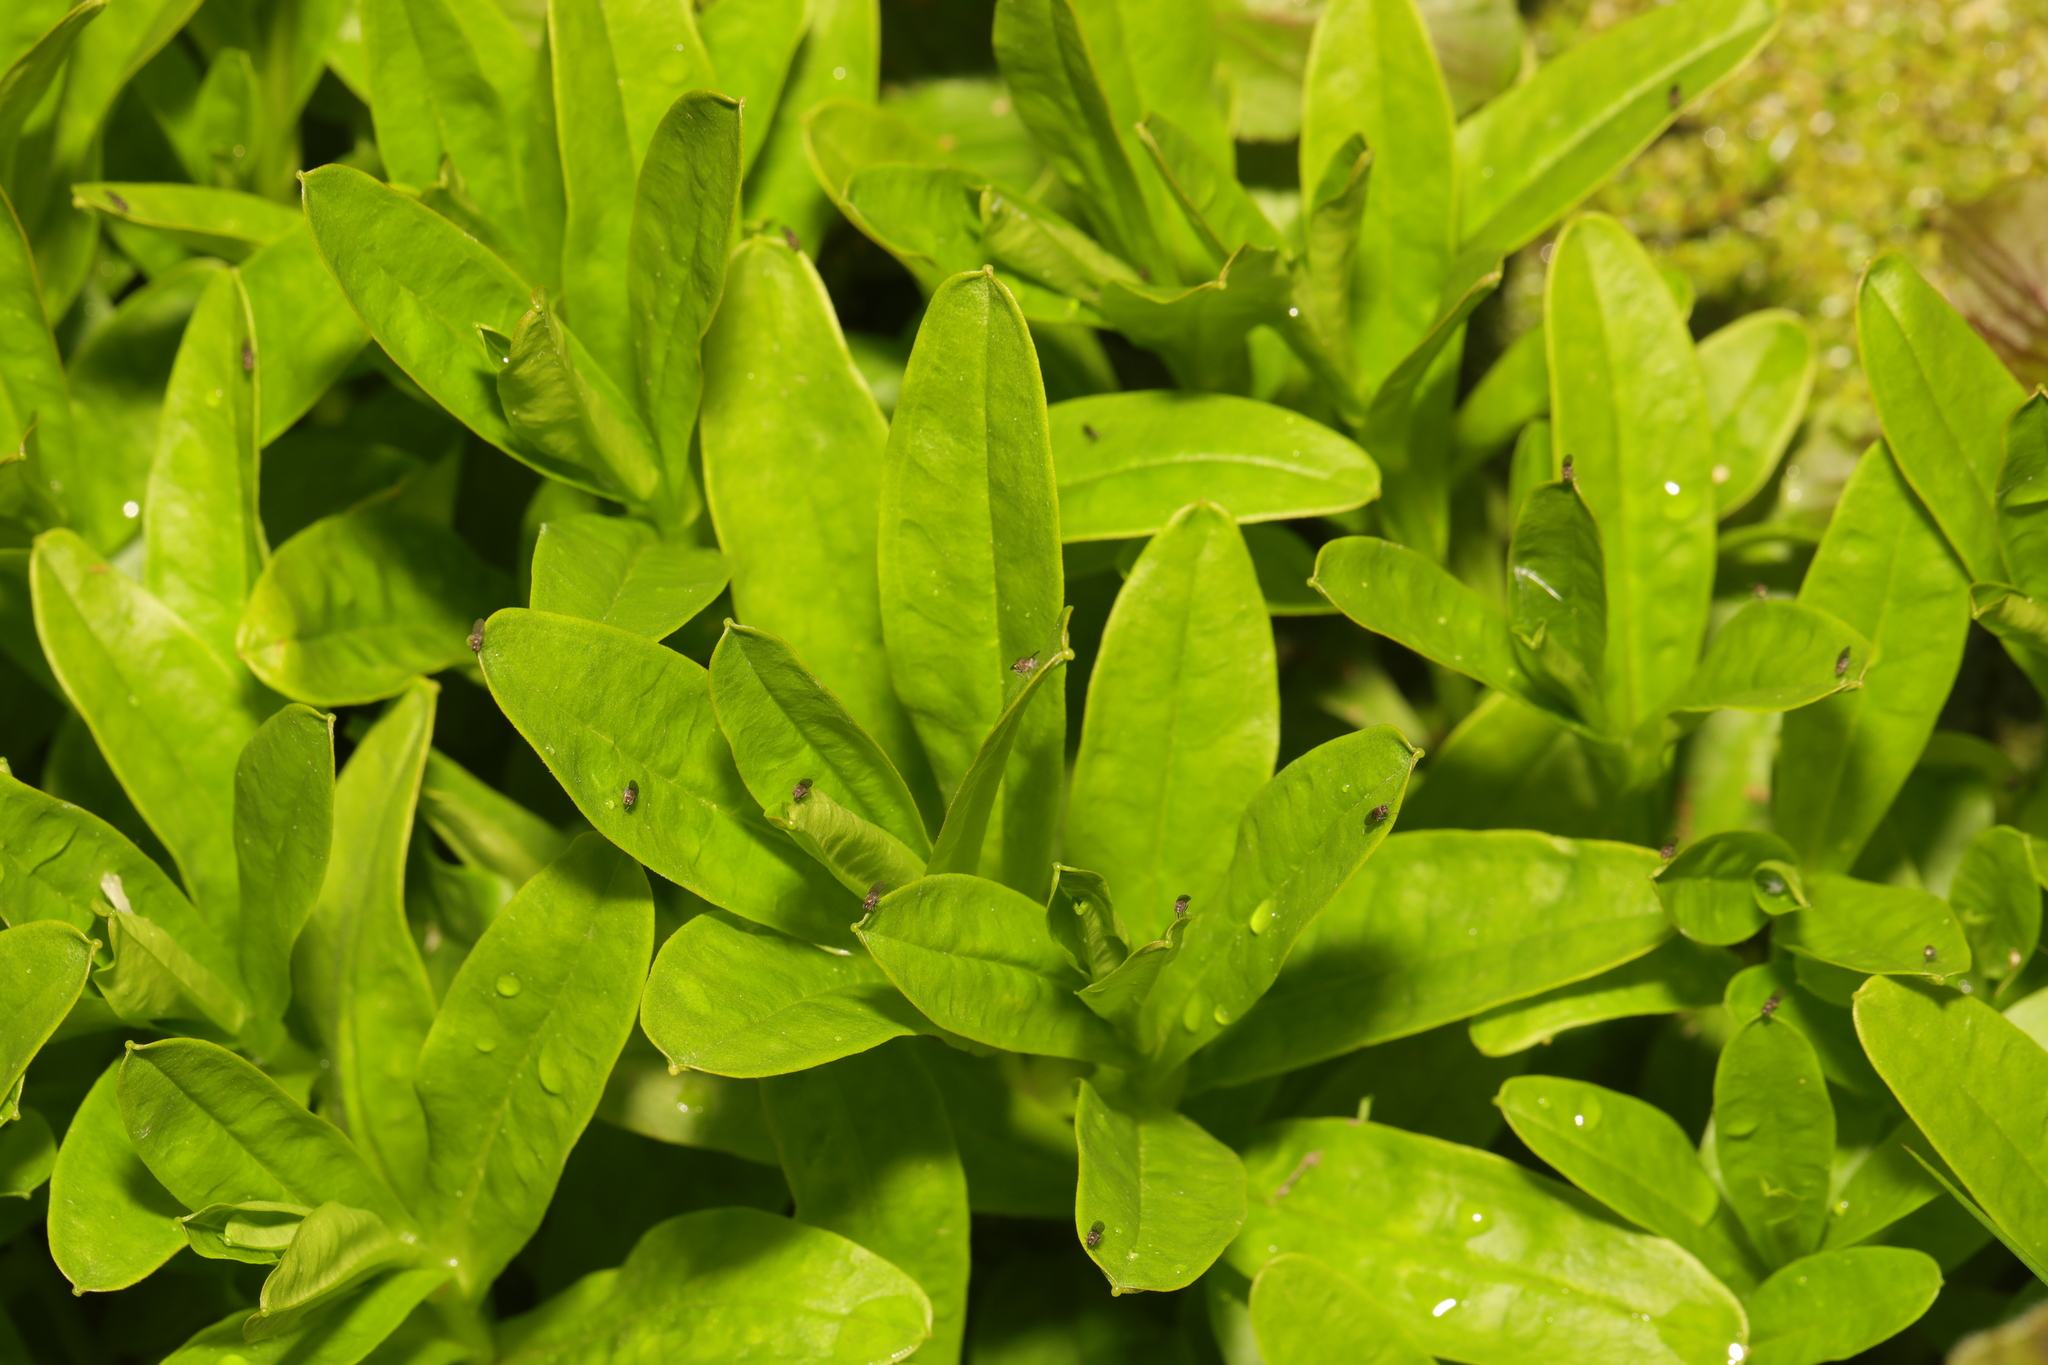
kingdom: Plantae
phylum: Tracheophyta
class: Magnoliopsida
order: Boraginales
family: Boraginaceae
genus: Myosotis
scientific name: Myosotis scorpioides
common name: Water forget-me-not
